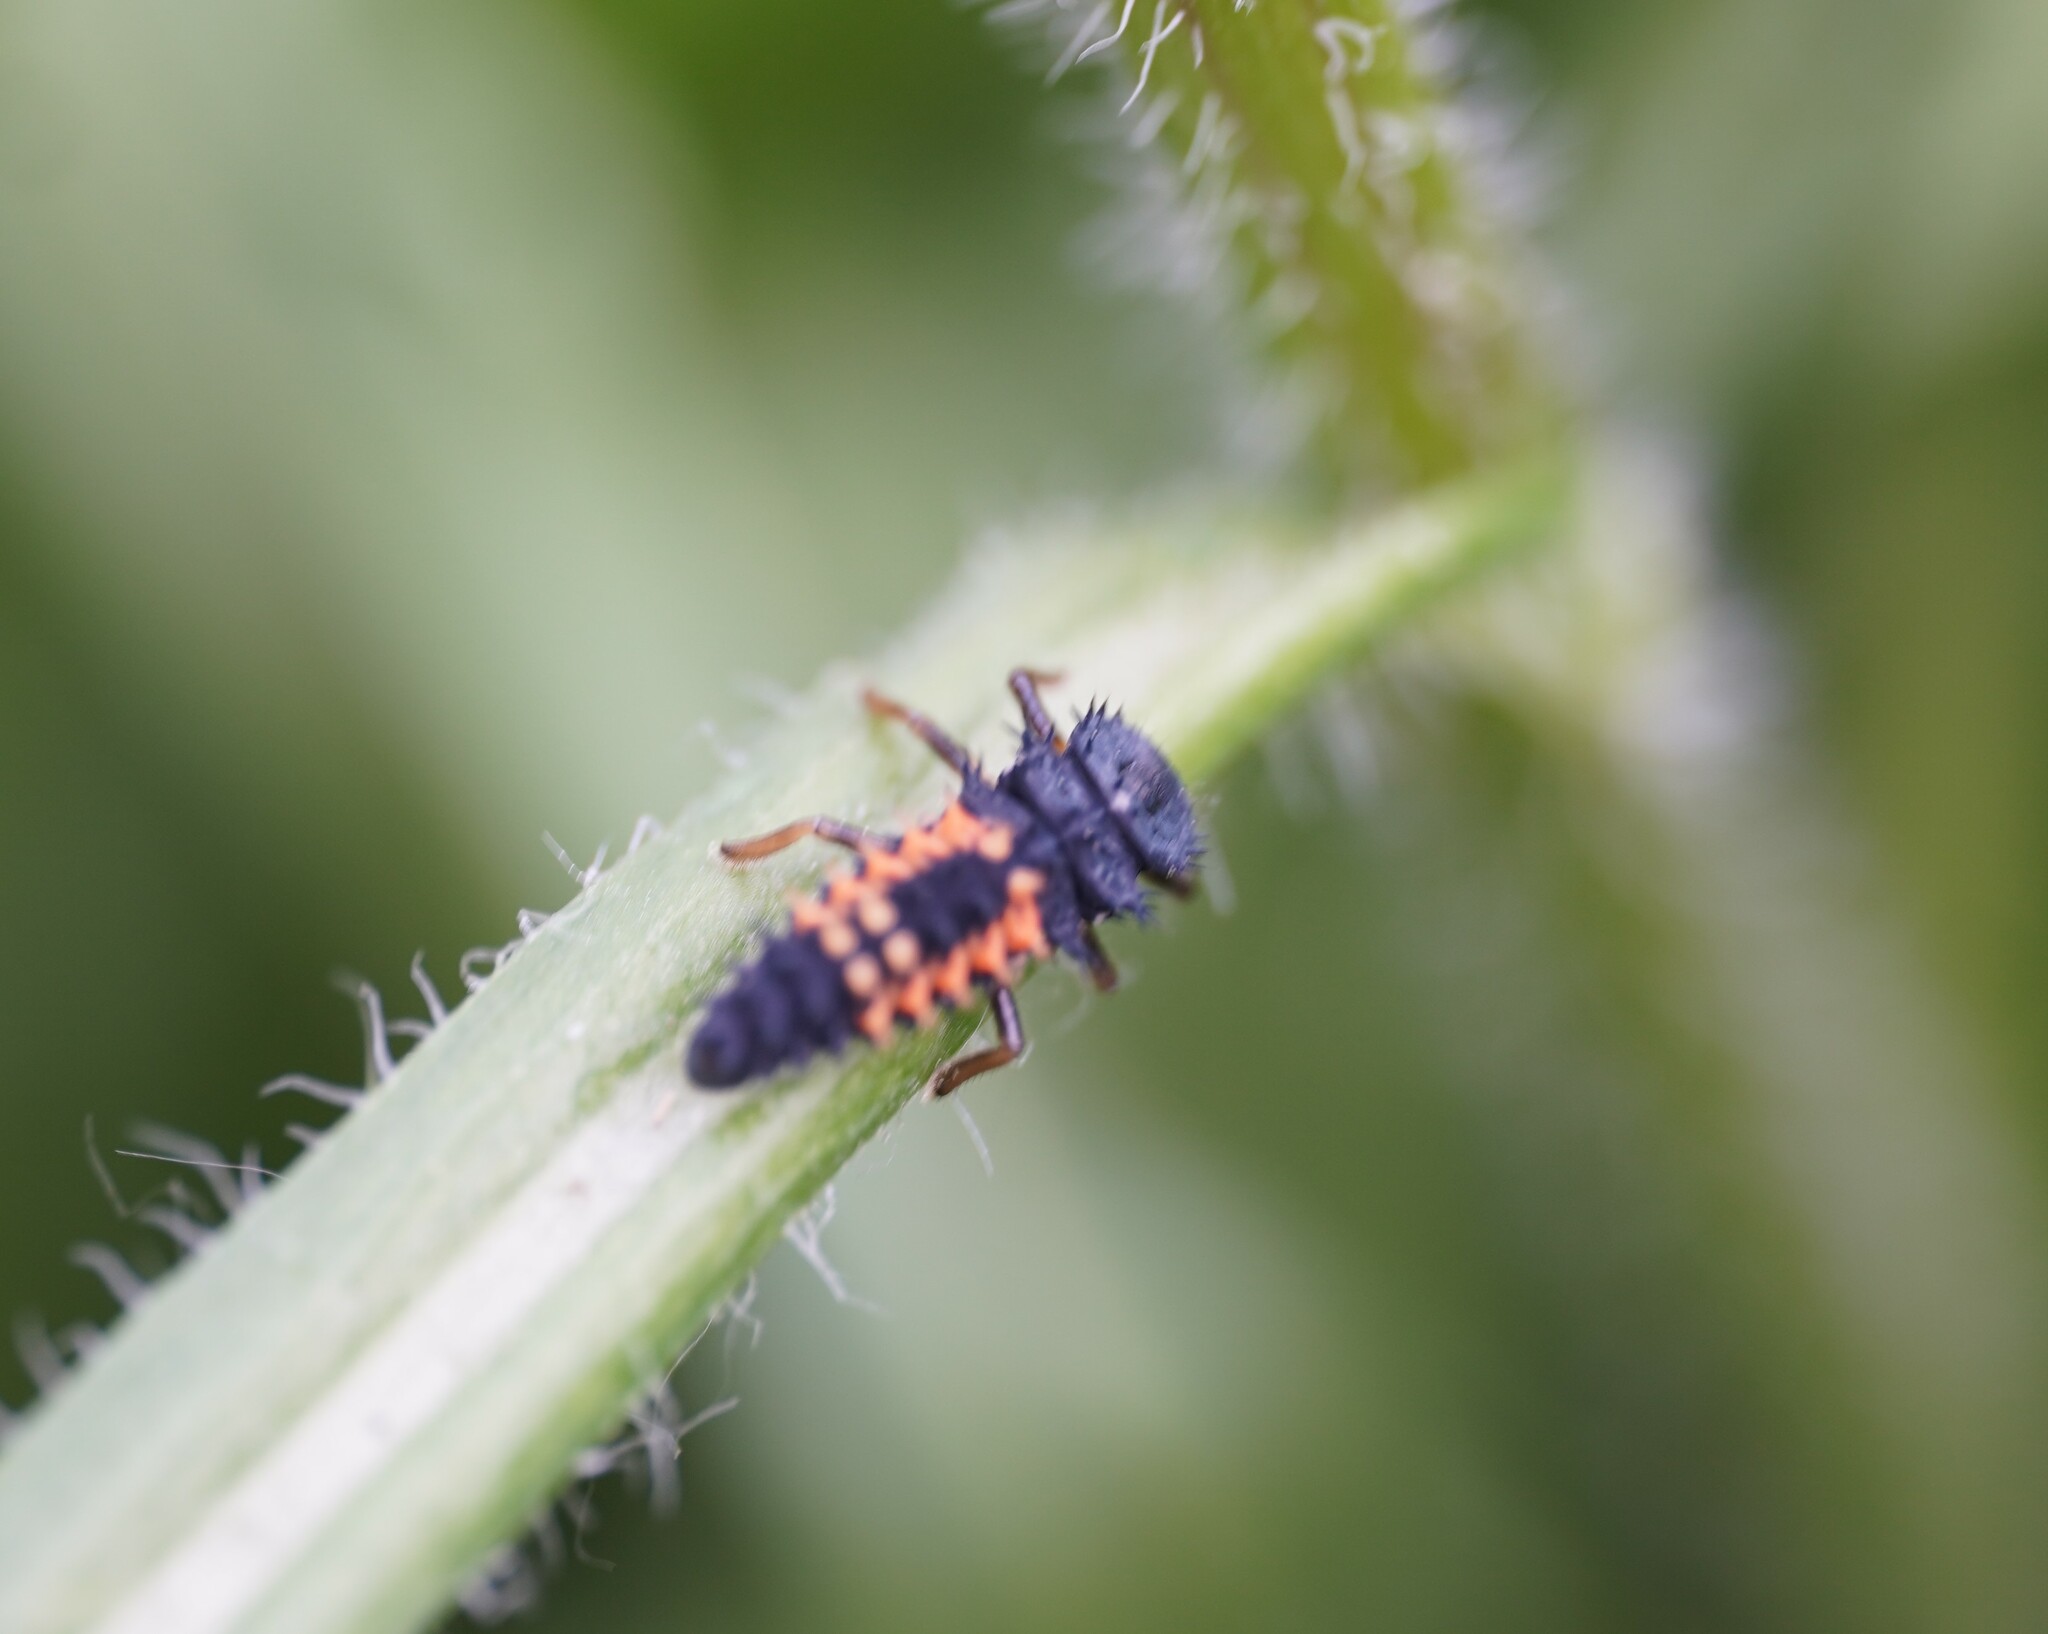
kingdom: Animalia
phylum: Arthropoda
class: Insecta
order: Coleoptera
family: Coccinellidae
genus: Harmonia
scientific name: Harmonia axyridis
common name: Harlequin ladybird
